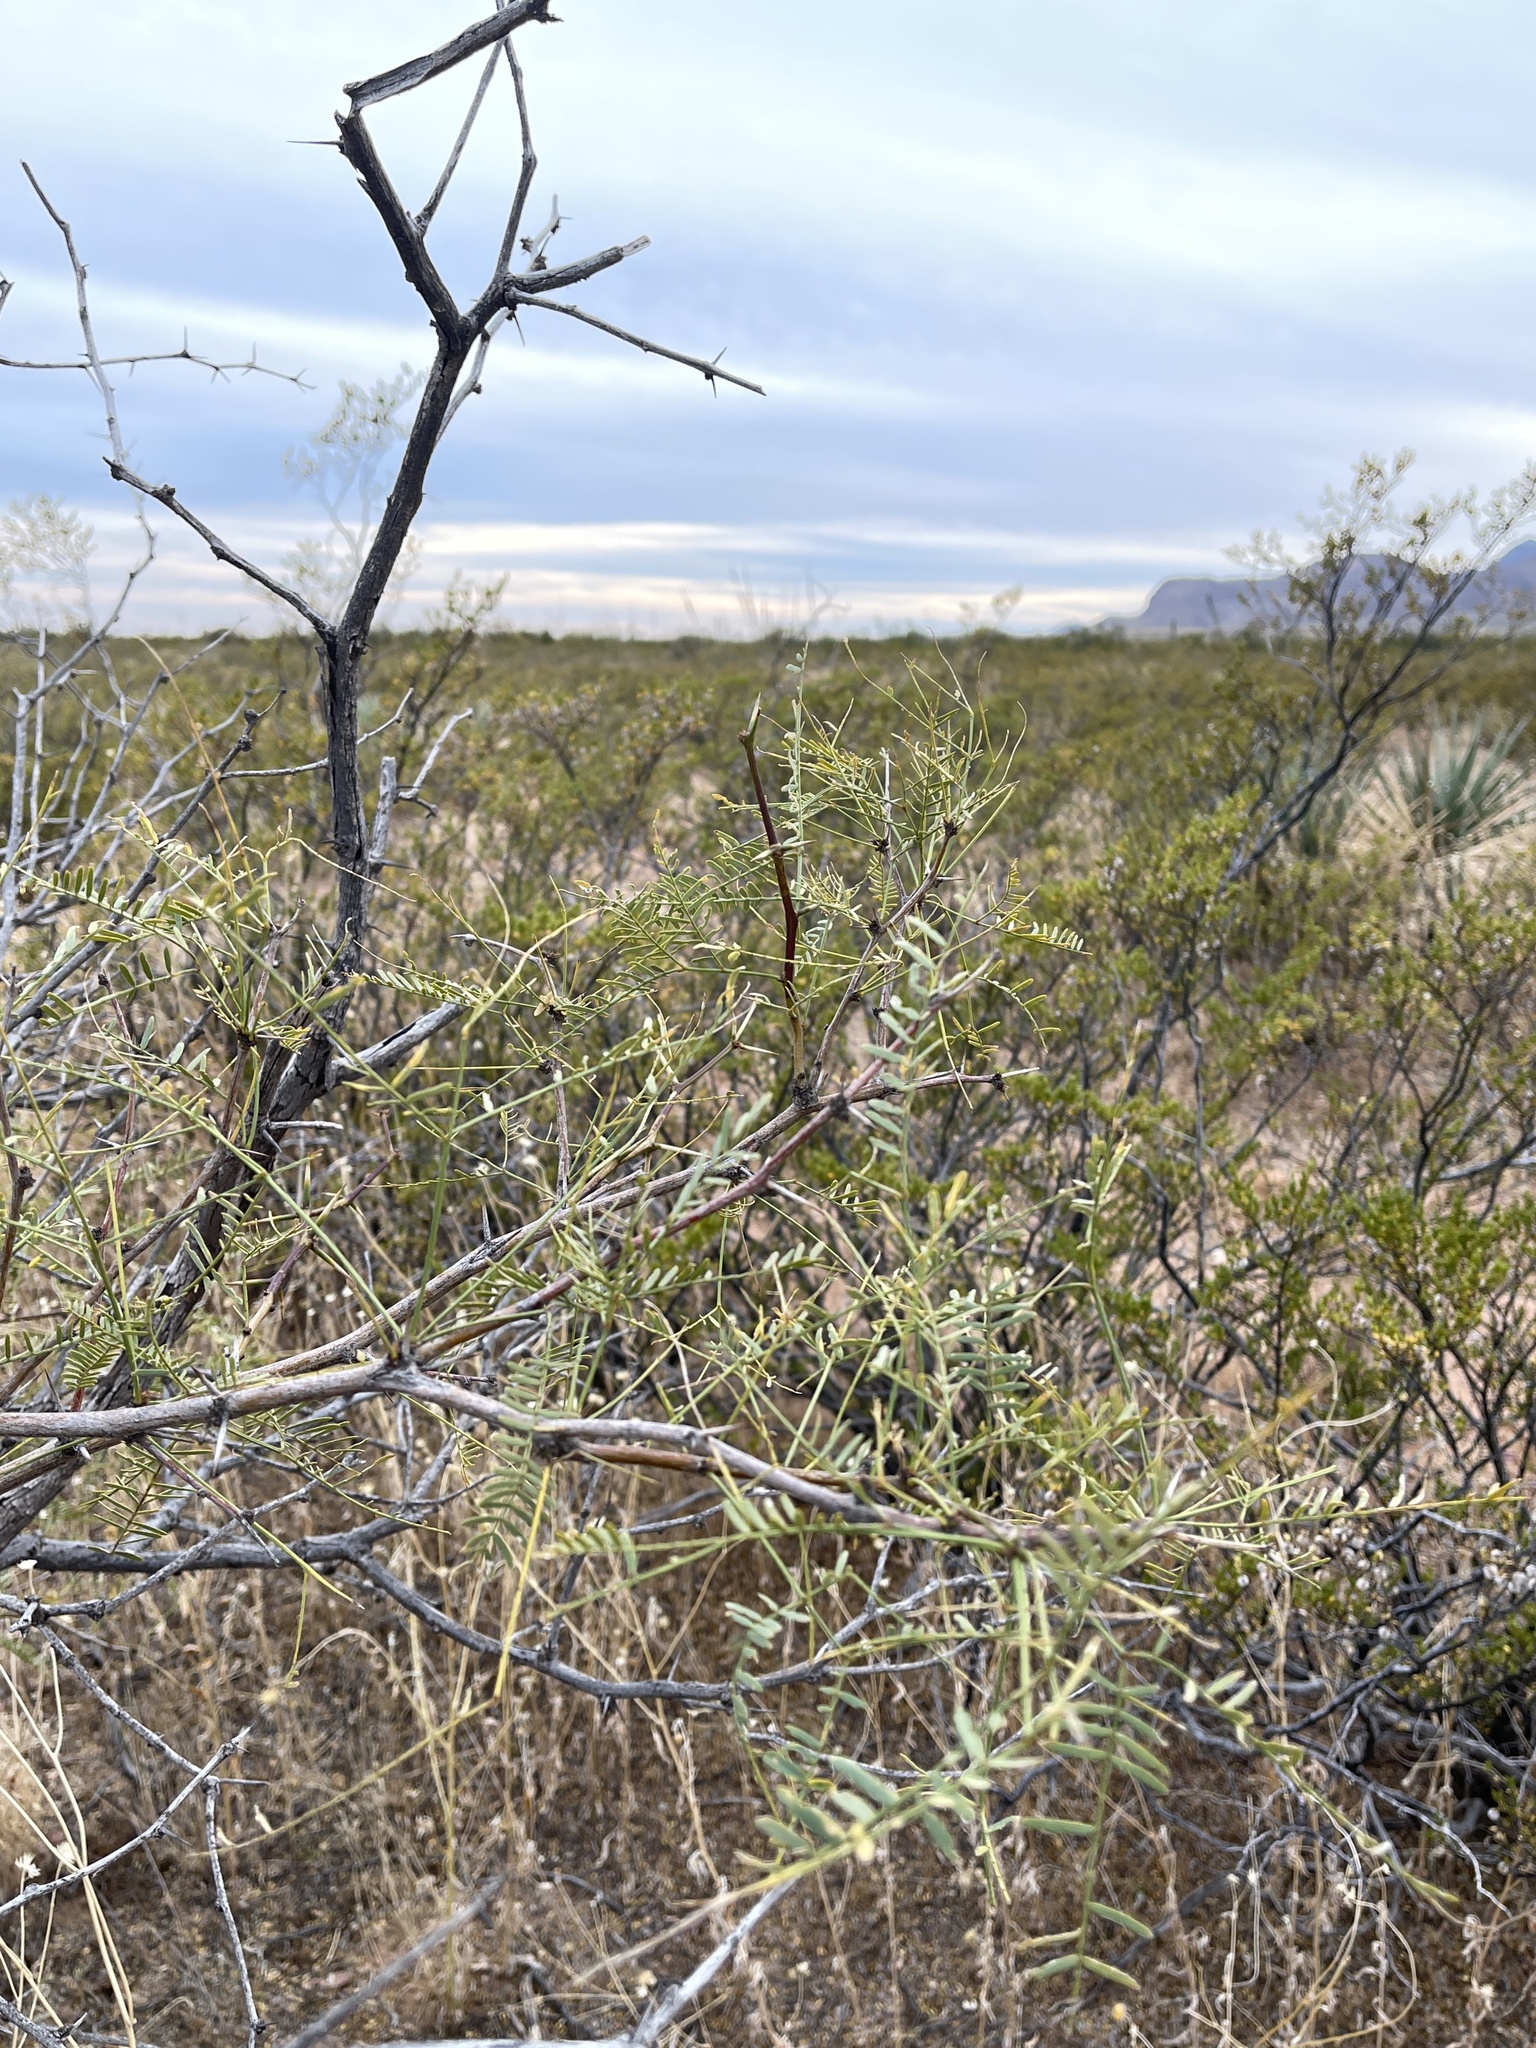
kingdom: Plantae
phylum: Tracheophyta
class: Magnoliopsida
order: Fabales
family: Fabaceae
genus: Prosopis
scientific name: Prosopis glandulosa
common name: Honey mesquite
